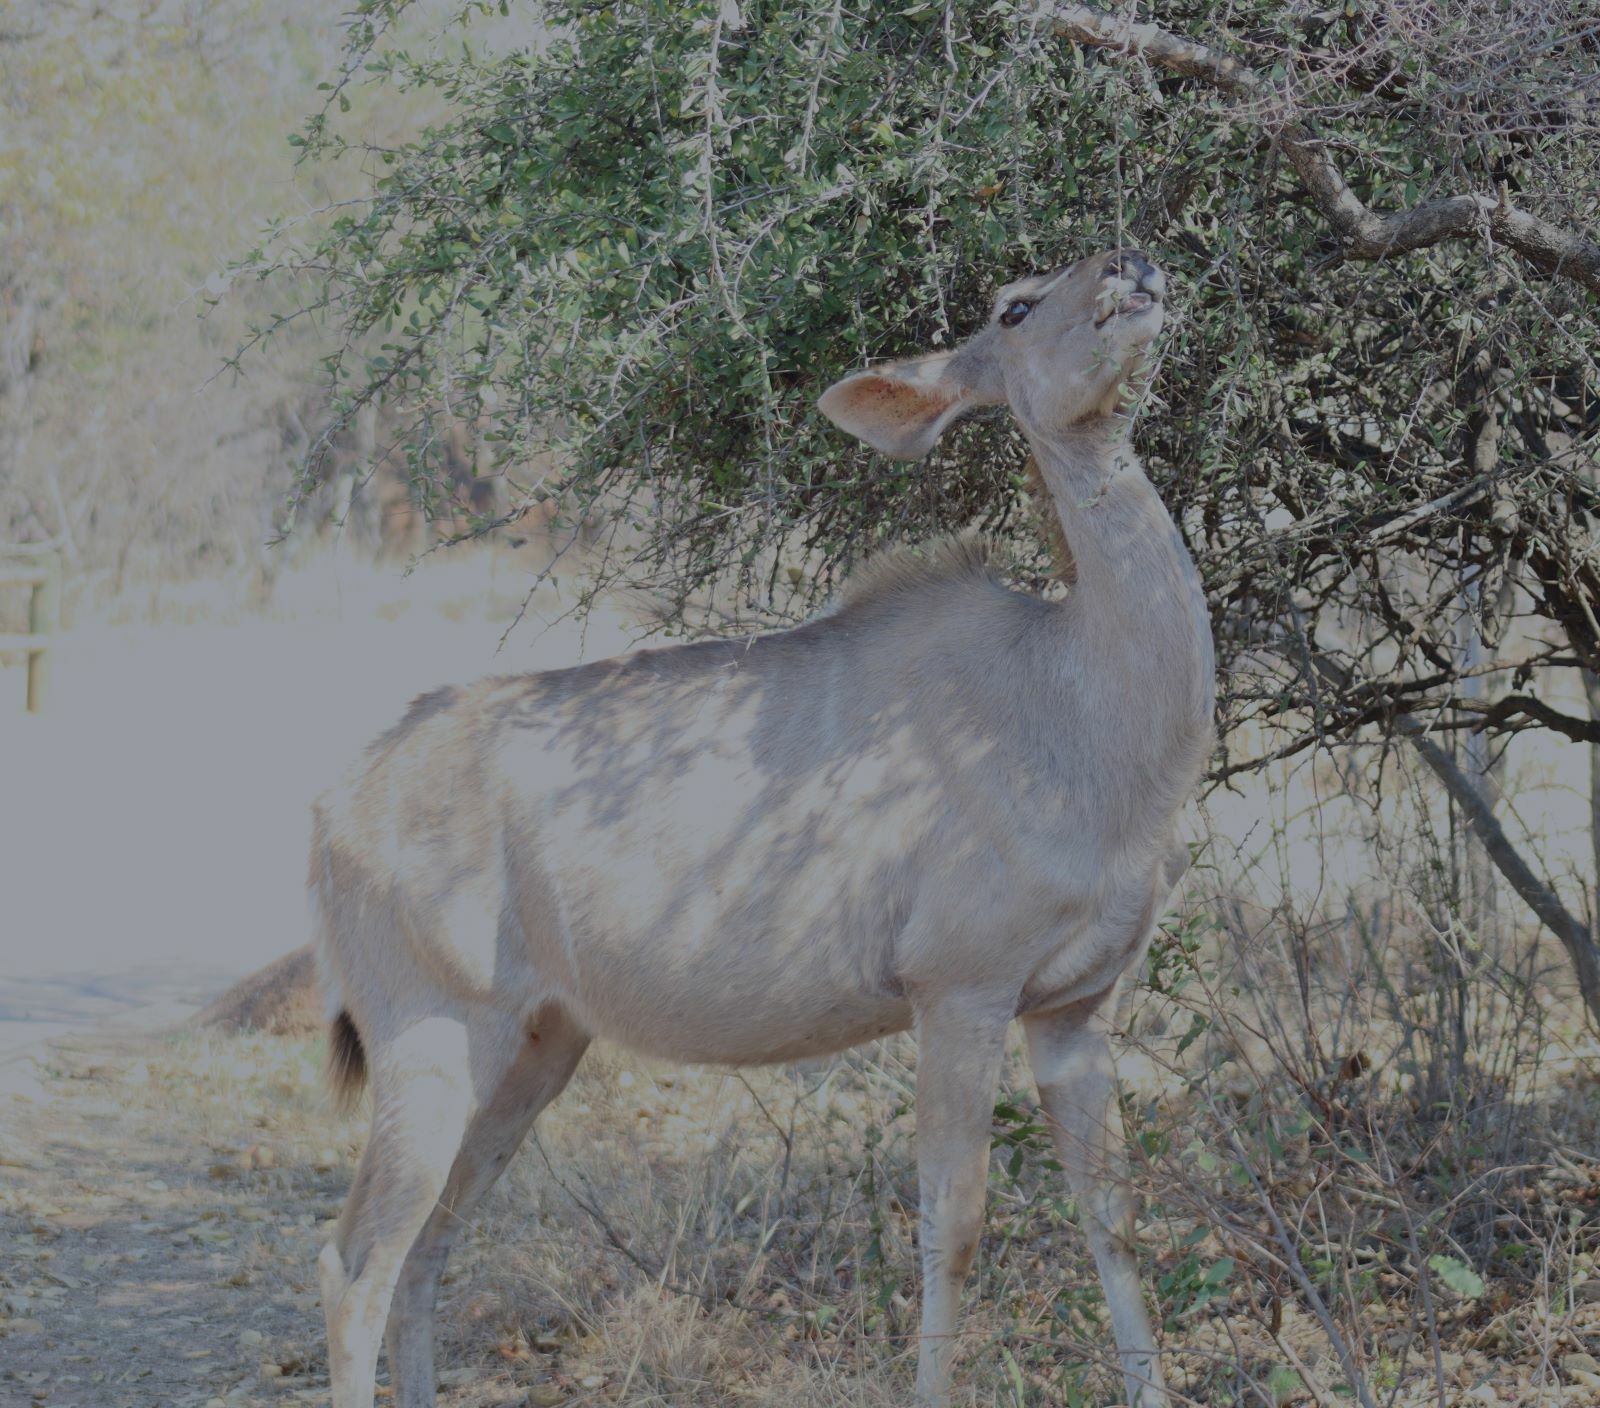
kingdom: Animalia
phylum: Chordata
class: Mammalia
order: Artiodactyla
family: Bovidae
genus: Tragelaphus
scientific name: Tragelaphus strepsiceros
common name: Greater kudu
